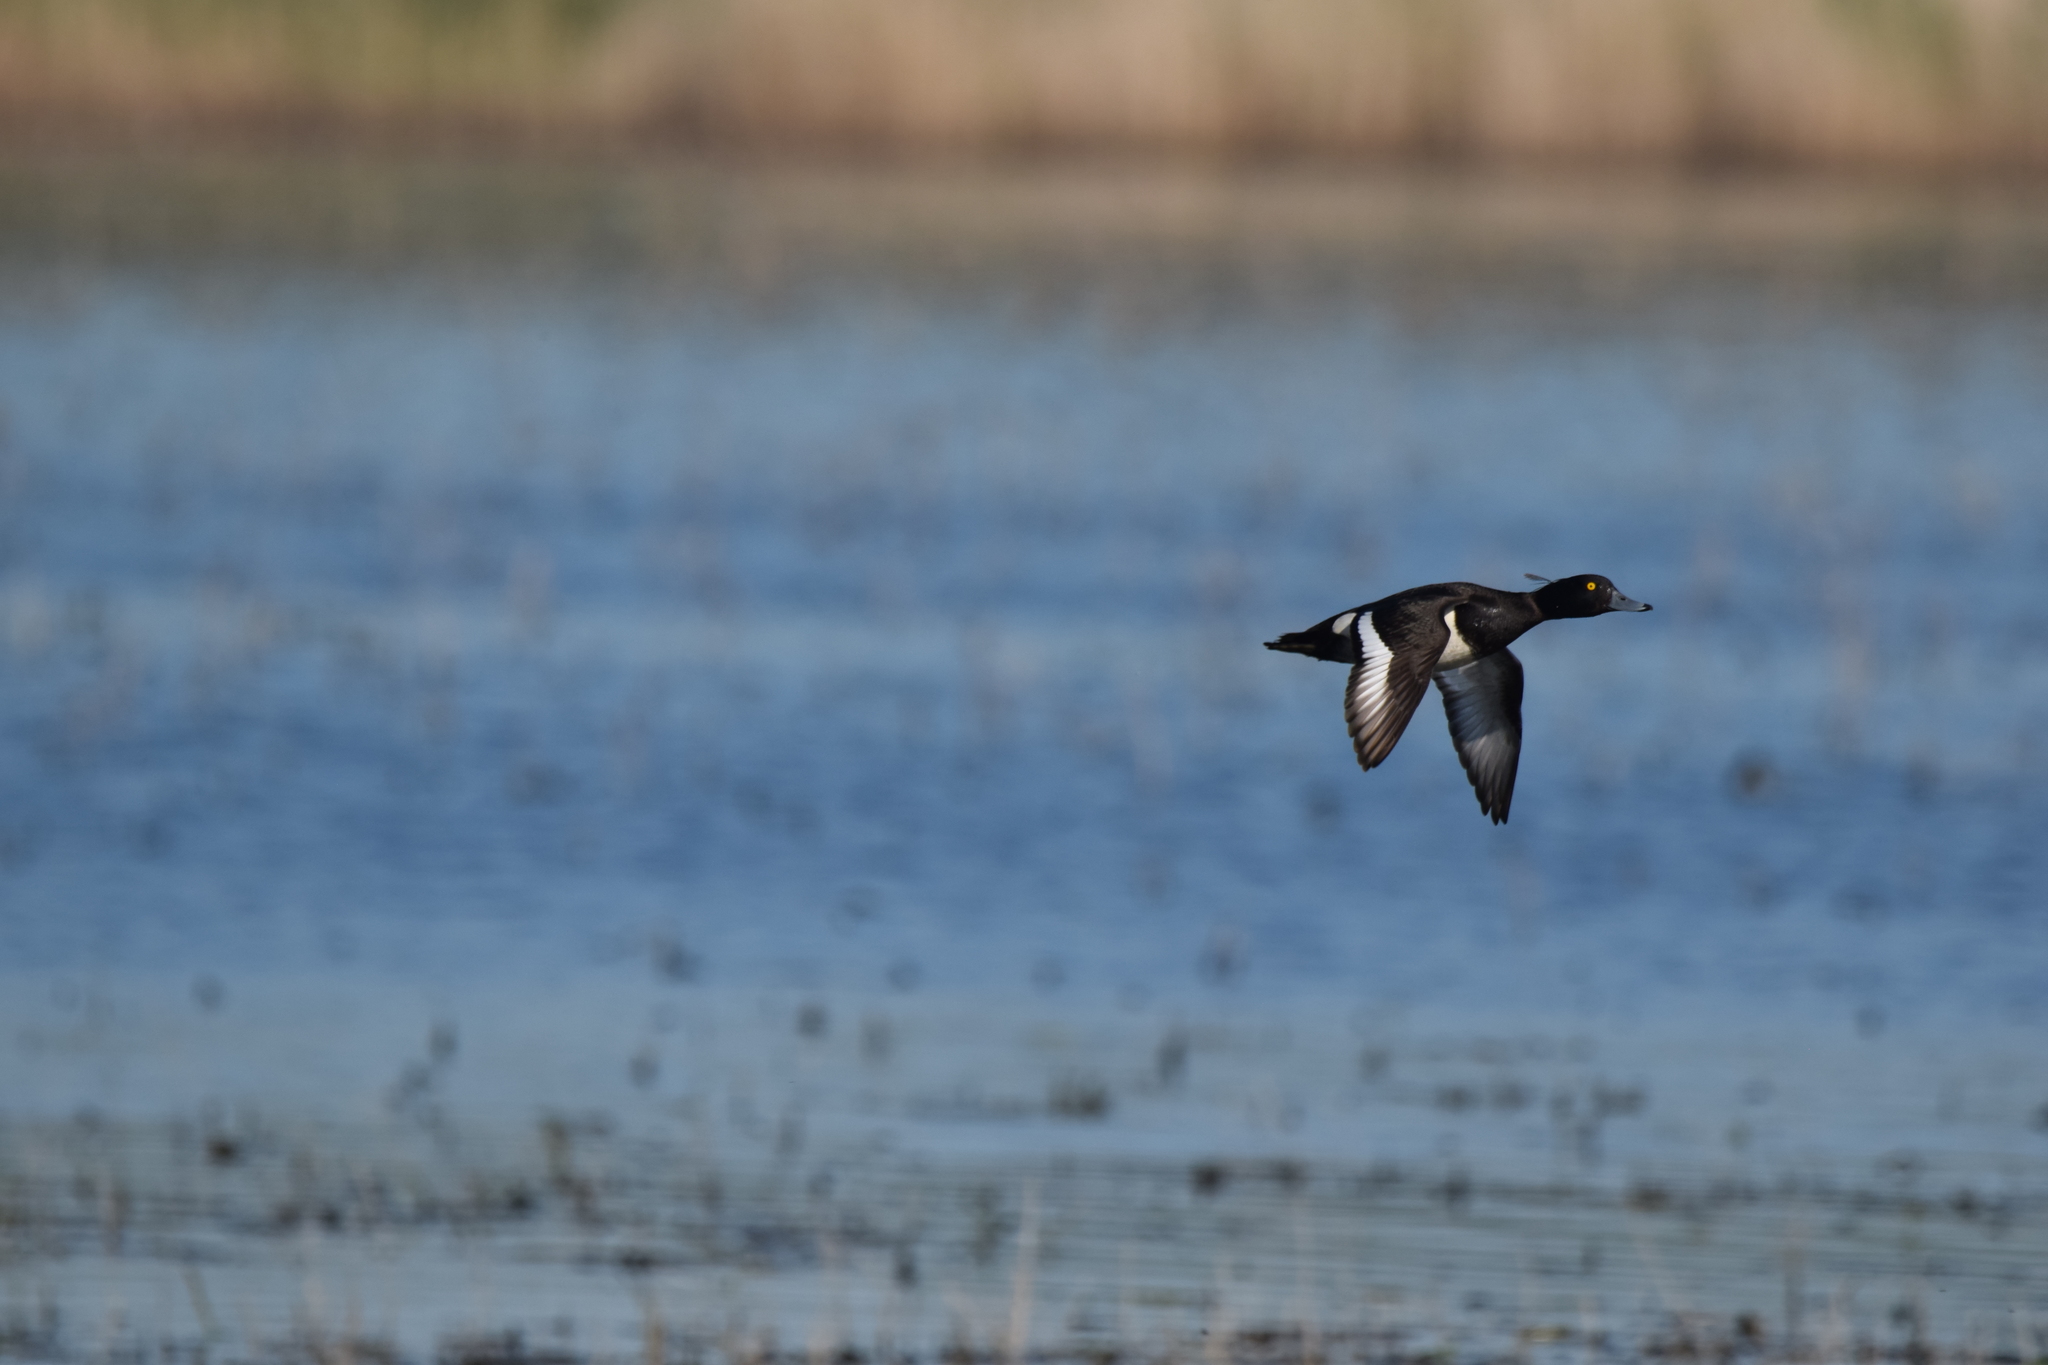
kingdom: Animalia
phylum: Chordata
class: Aves
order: Anseriformes
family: Anatidae
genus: Aythya
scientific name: Aythya fuligula
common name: Tufted duck
